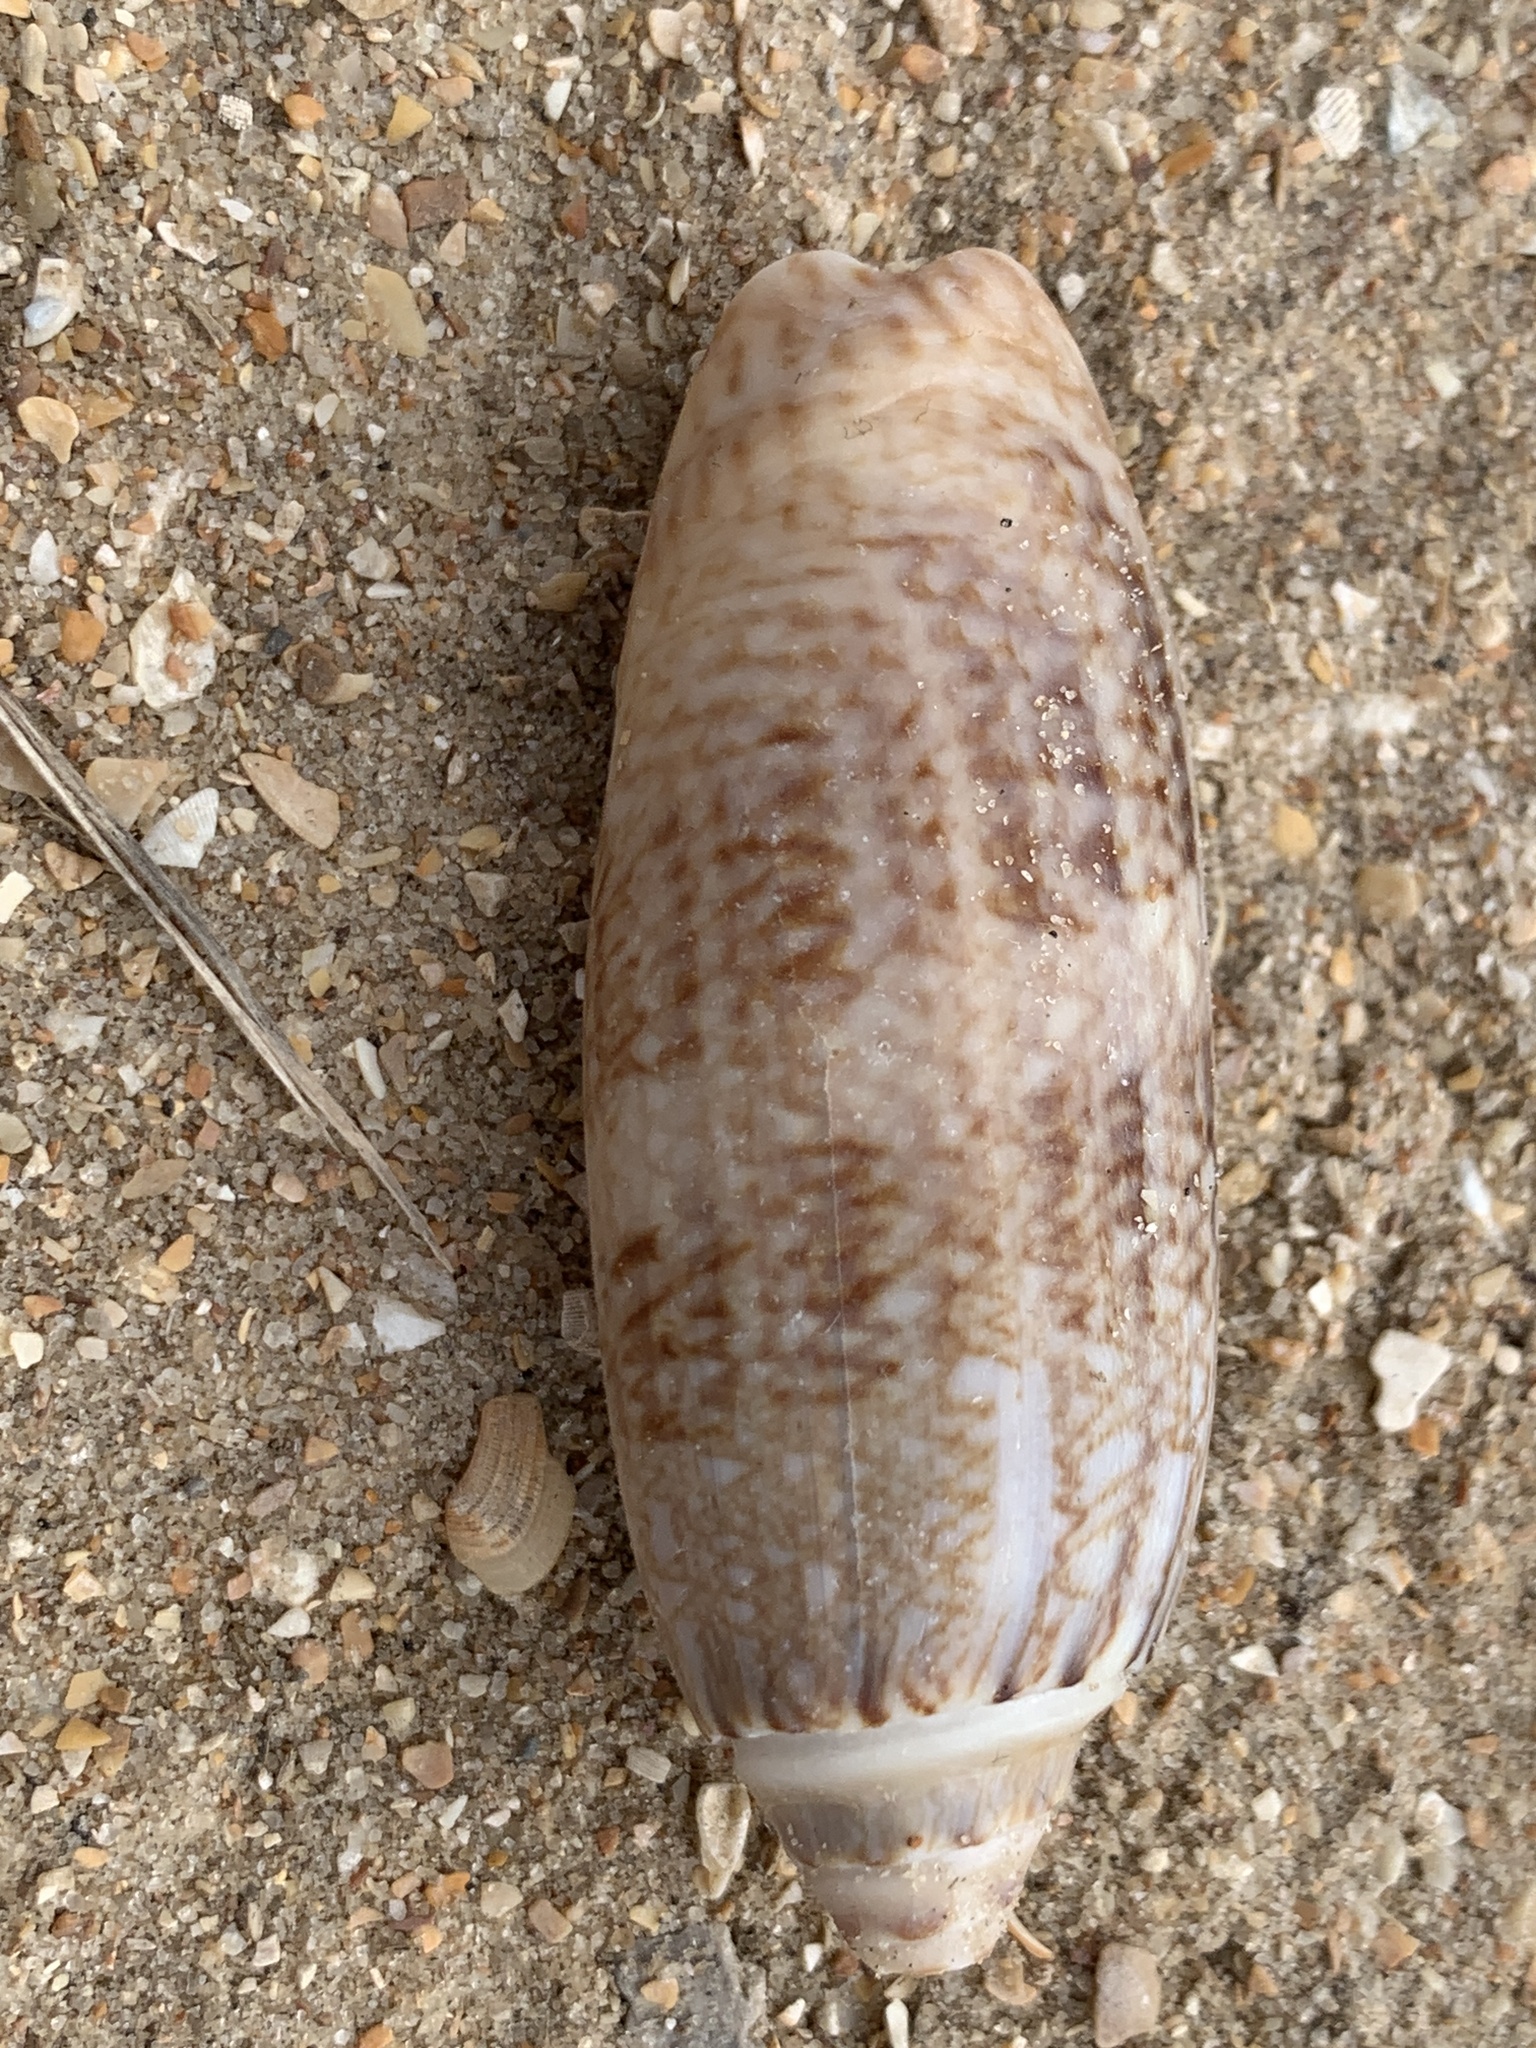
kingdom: Animalia
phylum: Mollusca
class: Gastropoda
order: Neogastropoda
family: Olividae
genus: Oliva
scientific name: Oliva sayana
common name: Lettered olive
